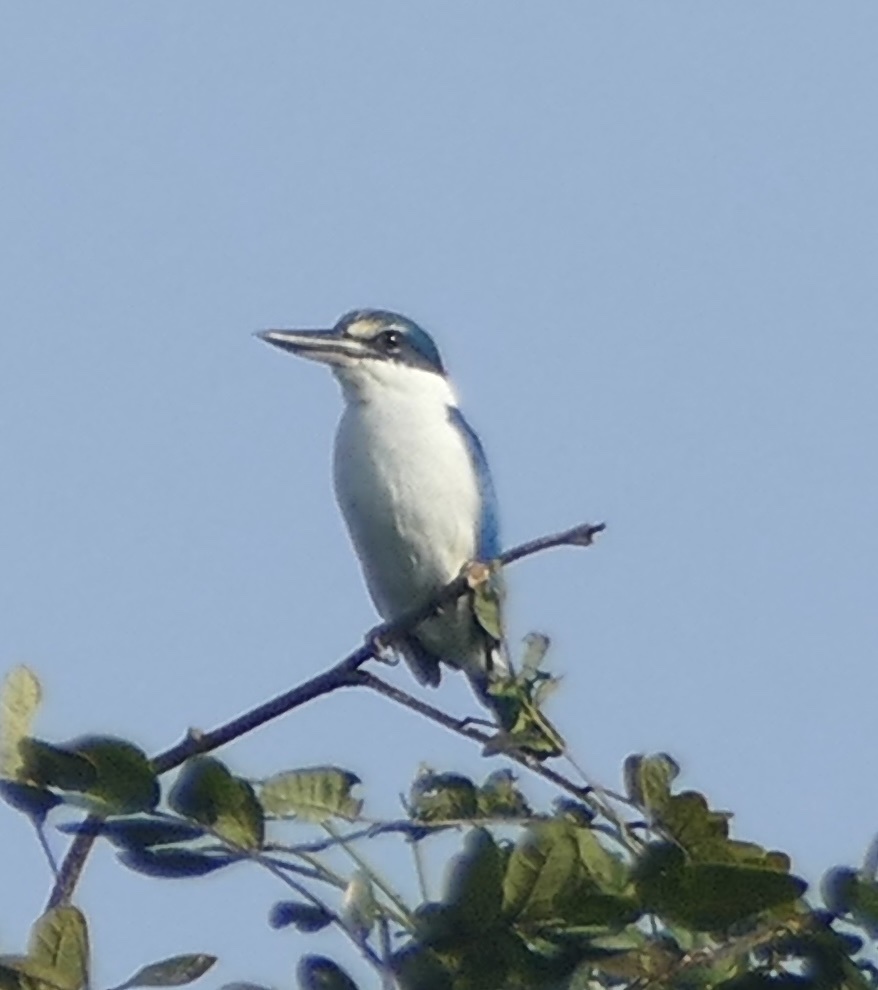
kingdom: Animalia
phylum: Chordata
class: Aves
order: Coraciiformes
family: Alcedinidae
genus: Todiramphus
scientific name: Todiramphus chloris
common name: Collared kingfisher
